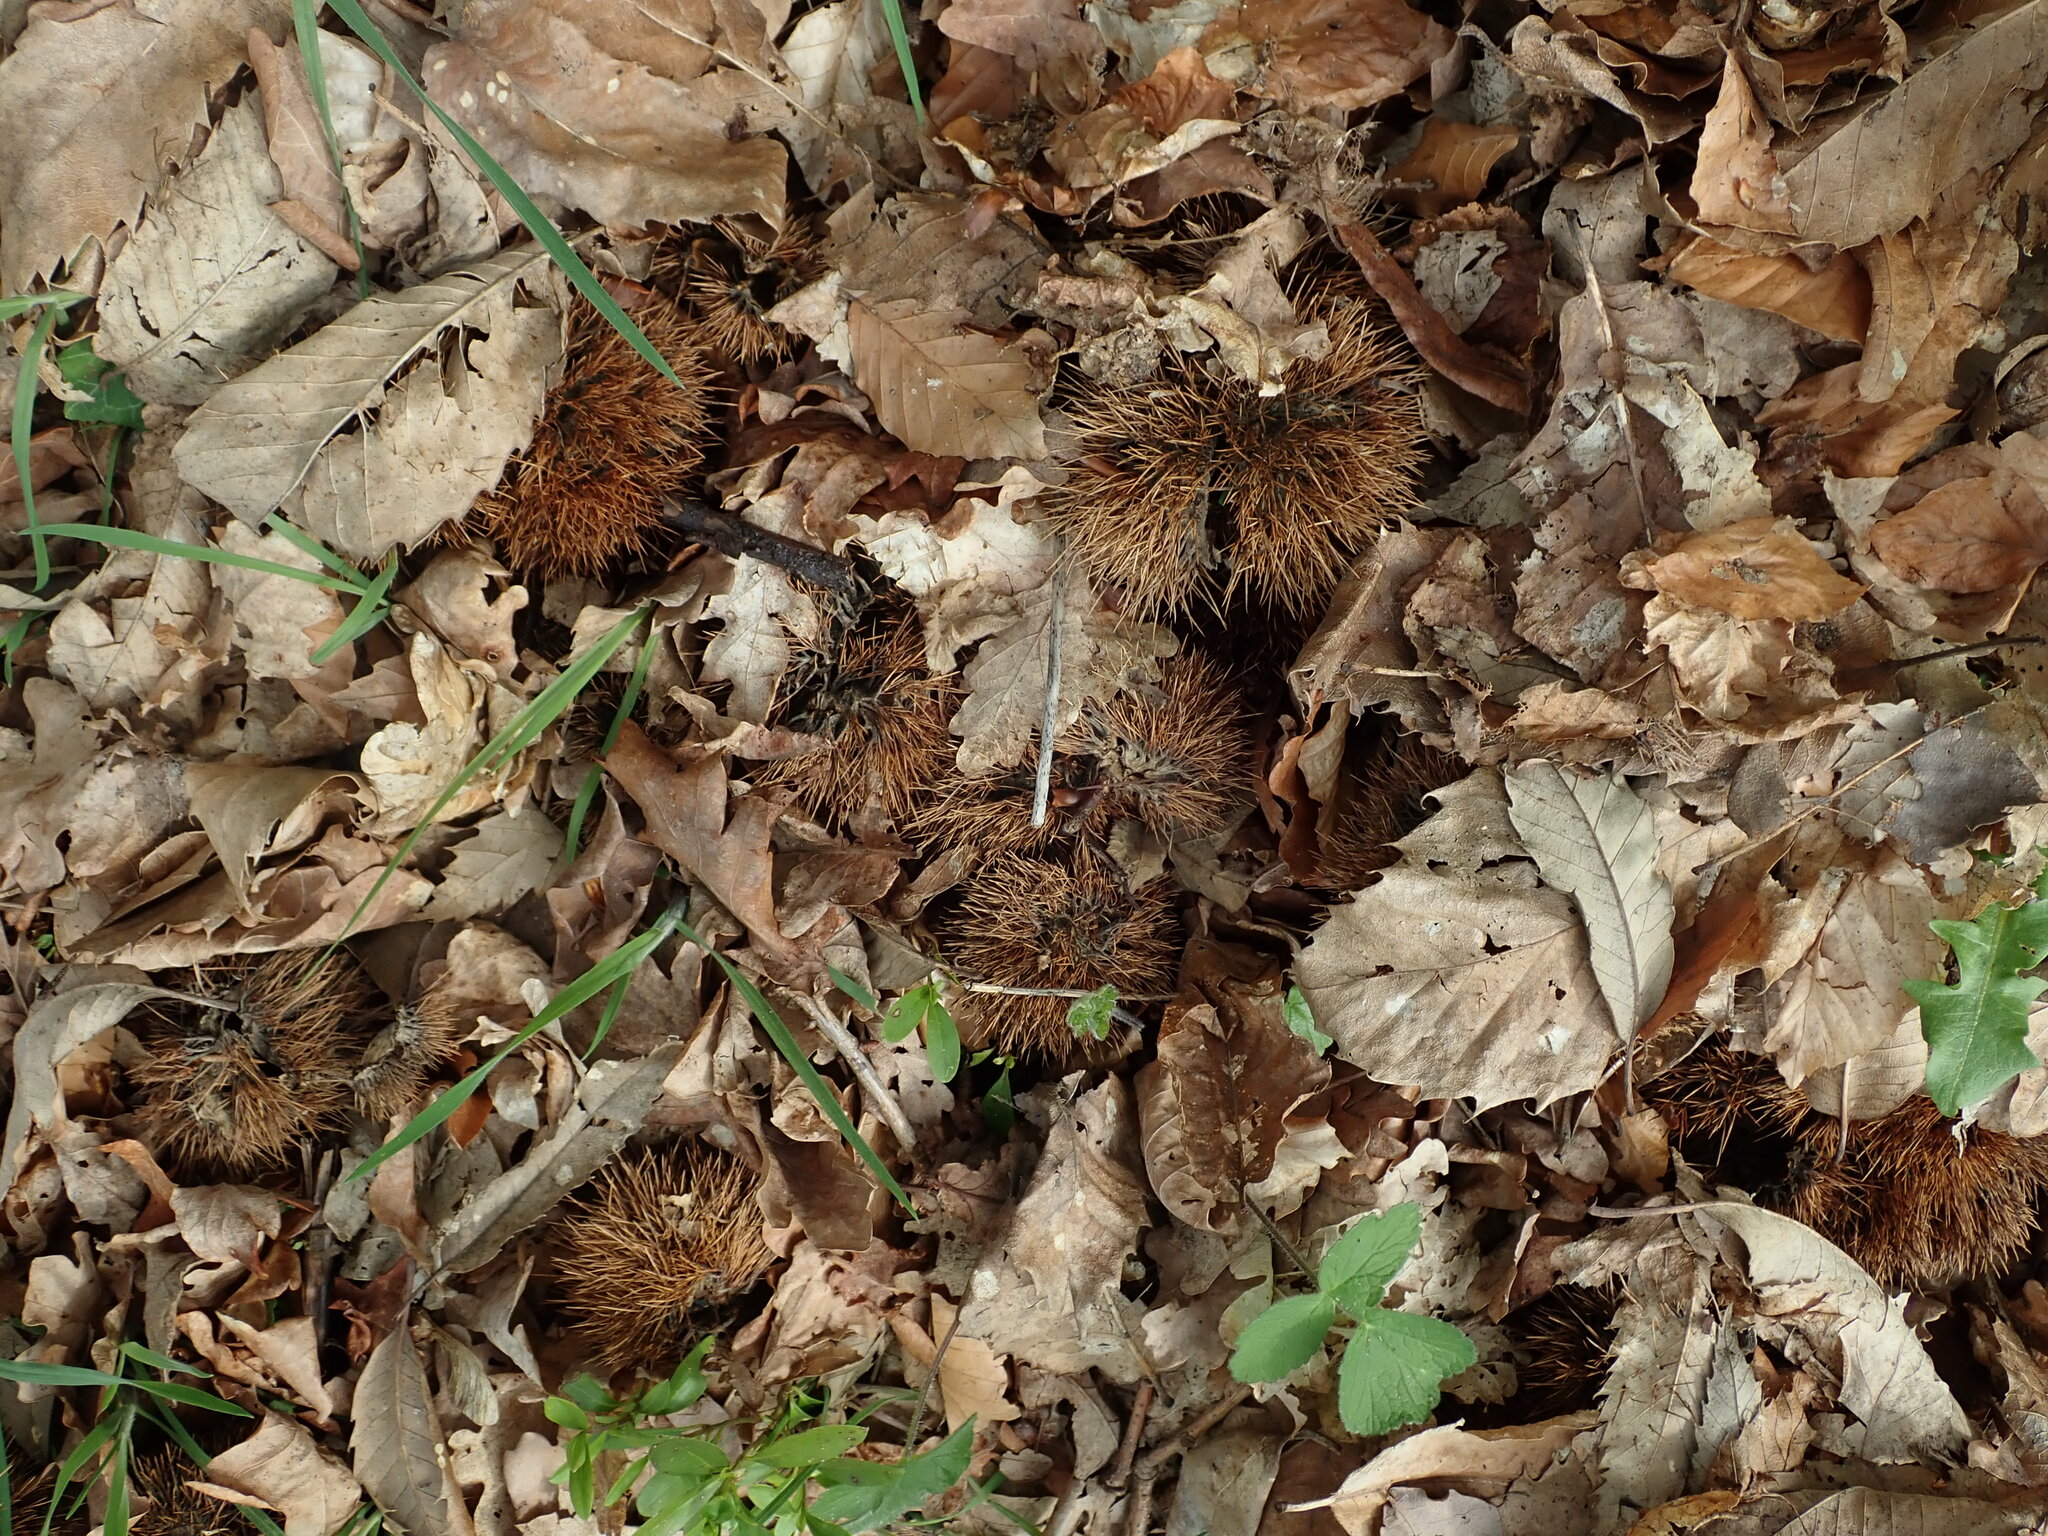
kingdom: Plantae
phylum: Tracheophyta
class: Magnoliopsida
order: Fagales
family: Fagaceae
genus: Castanea
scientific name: Castanea sativa
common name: Sweet chestnut
